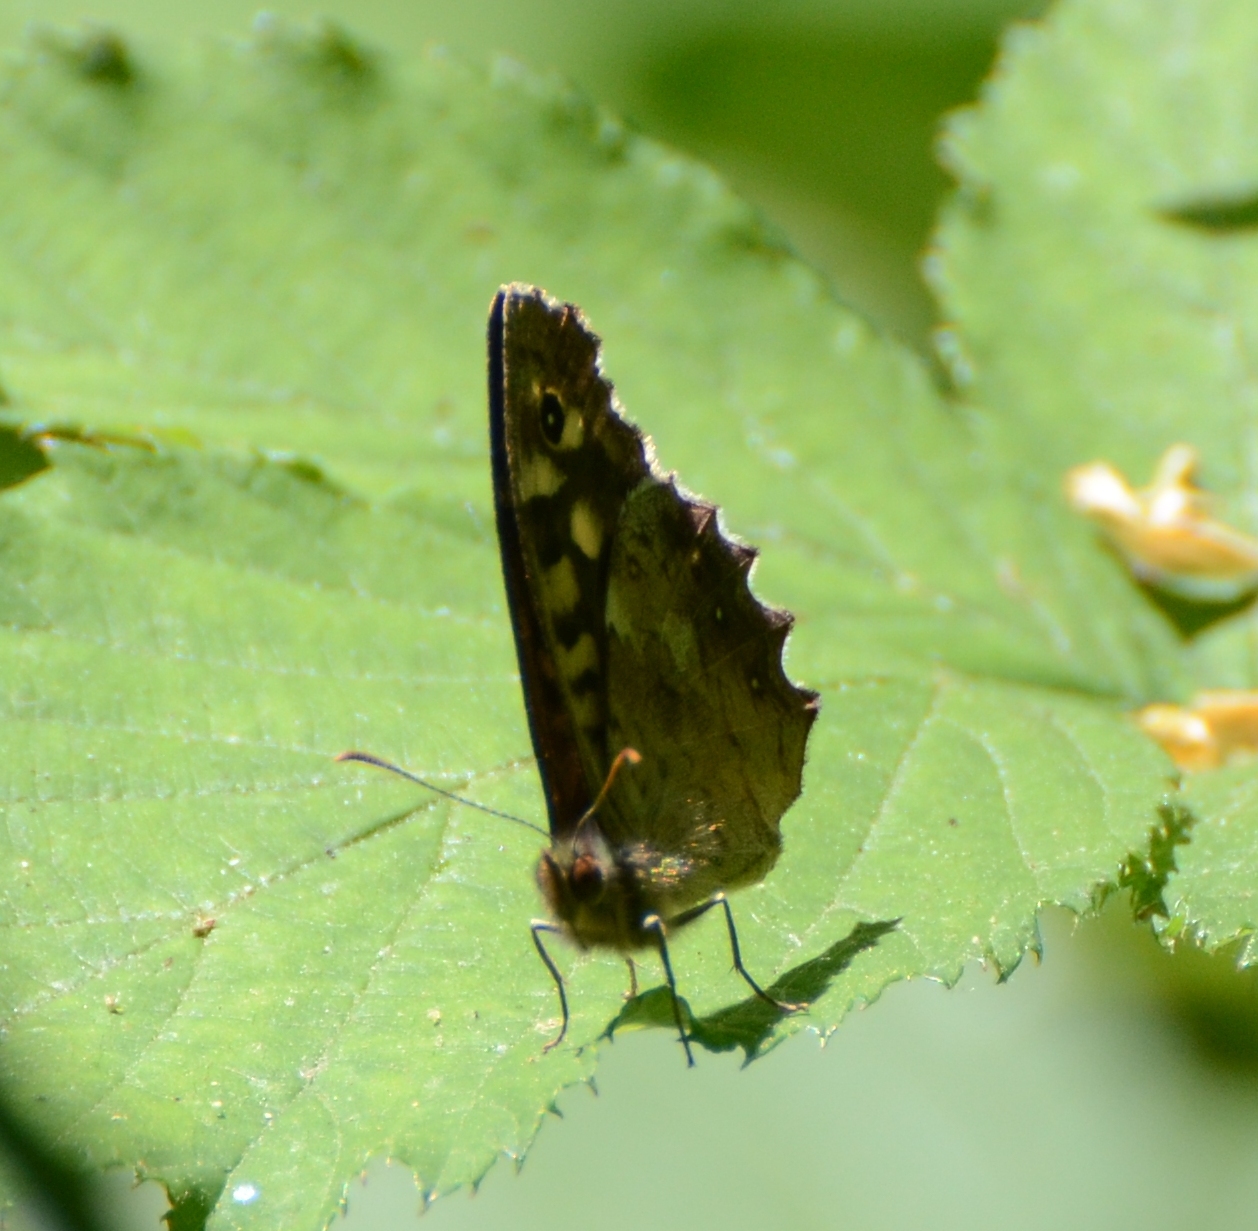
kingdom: Animalia
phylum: Arthropoda
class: Insecta
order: Lepidoptera
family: Nymphalidae
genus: Pararge
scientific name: Pararge aegeria
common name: Speckled wood
